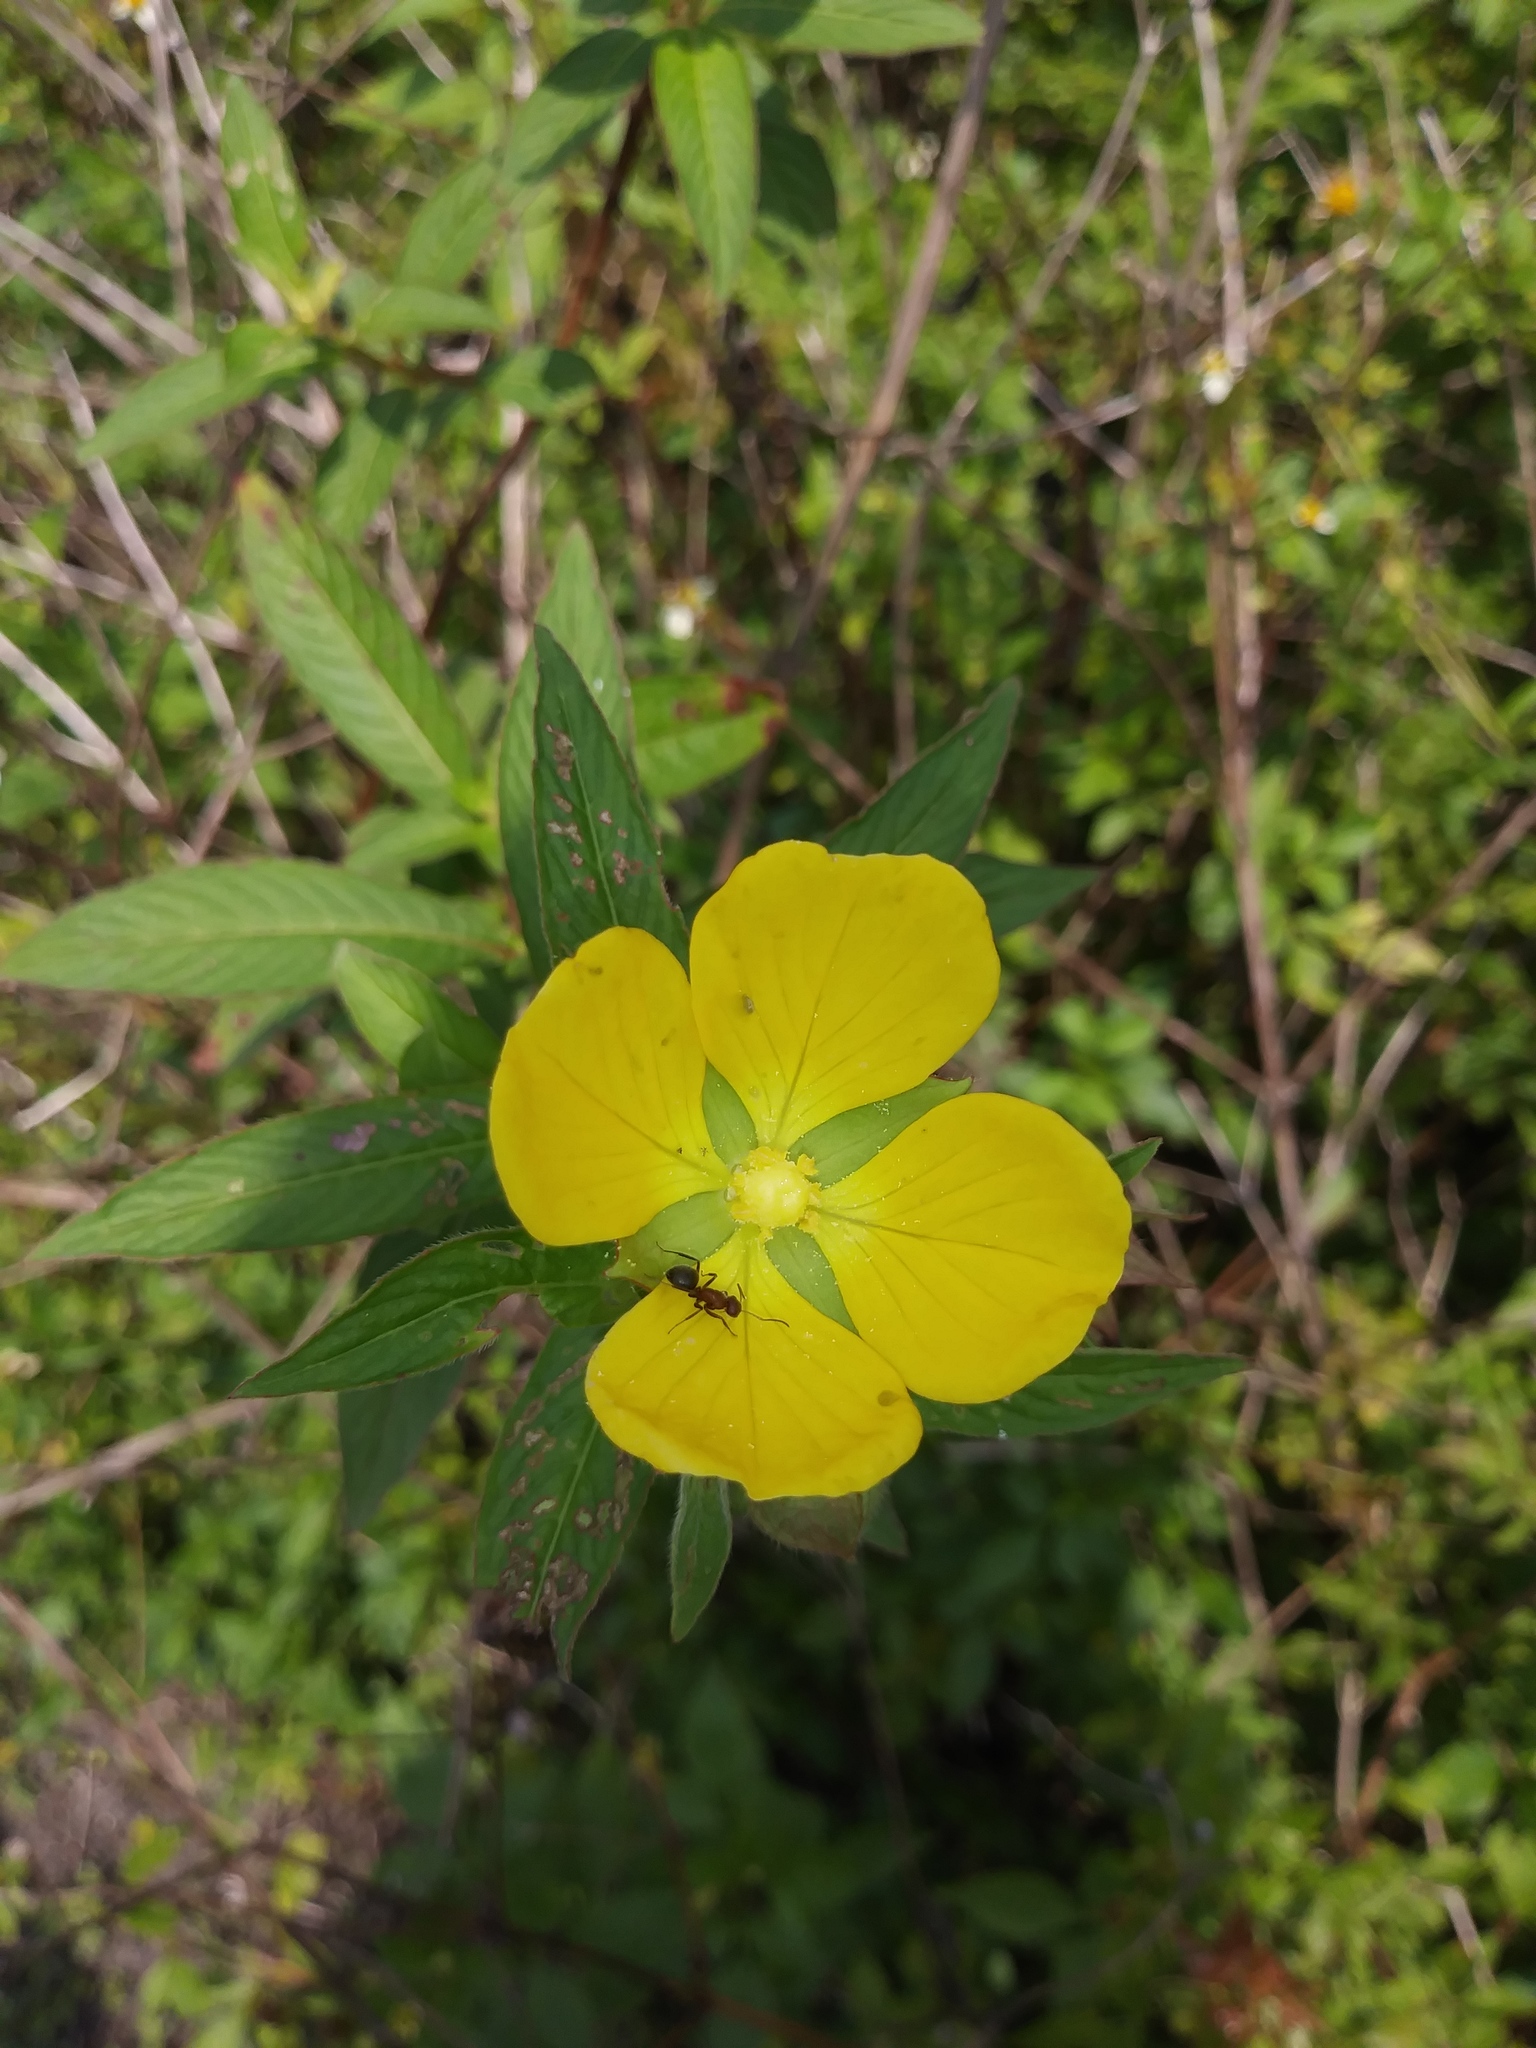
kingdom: Plantae
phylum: Tracheophyta
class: Magnoliopsida
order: Myrtales
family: Onagraceae
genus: Ludwigia
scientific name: Ludwigia octovalvis
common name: Water-primrose
